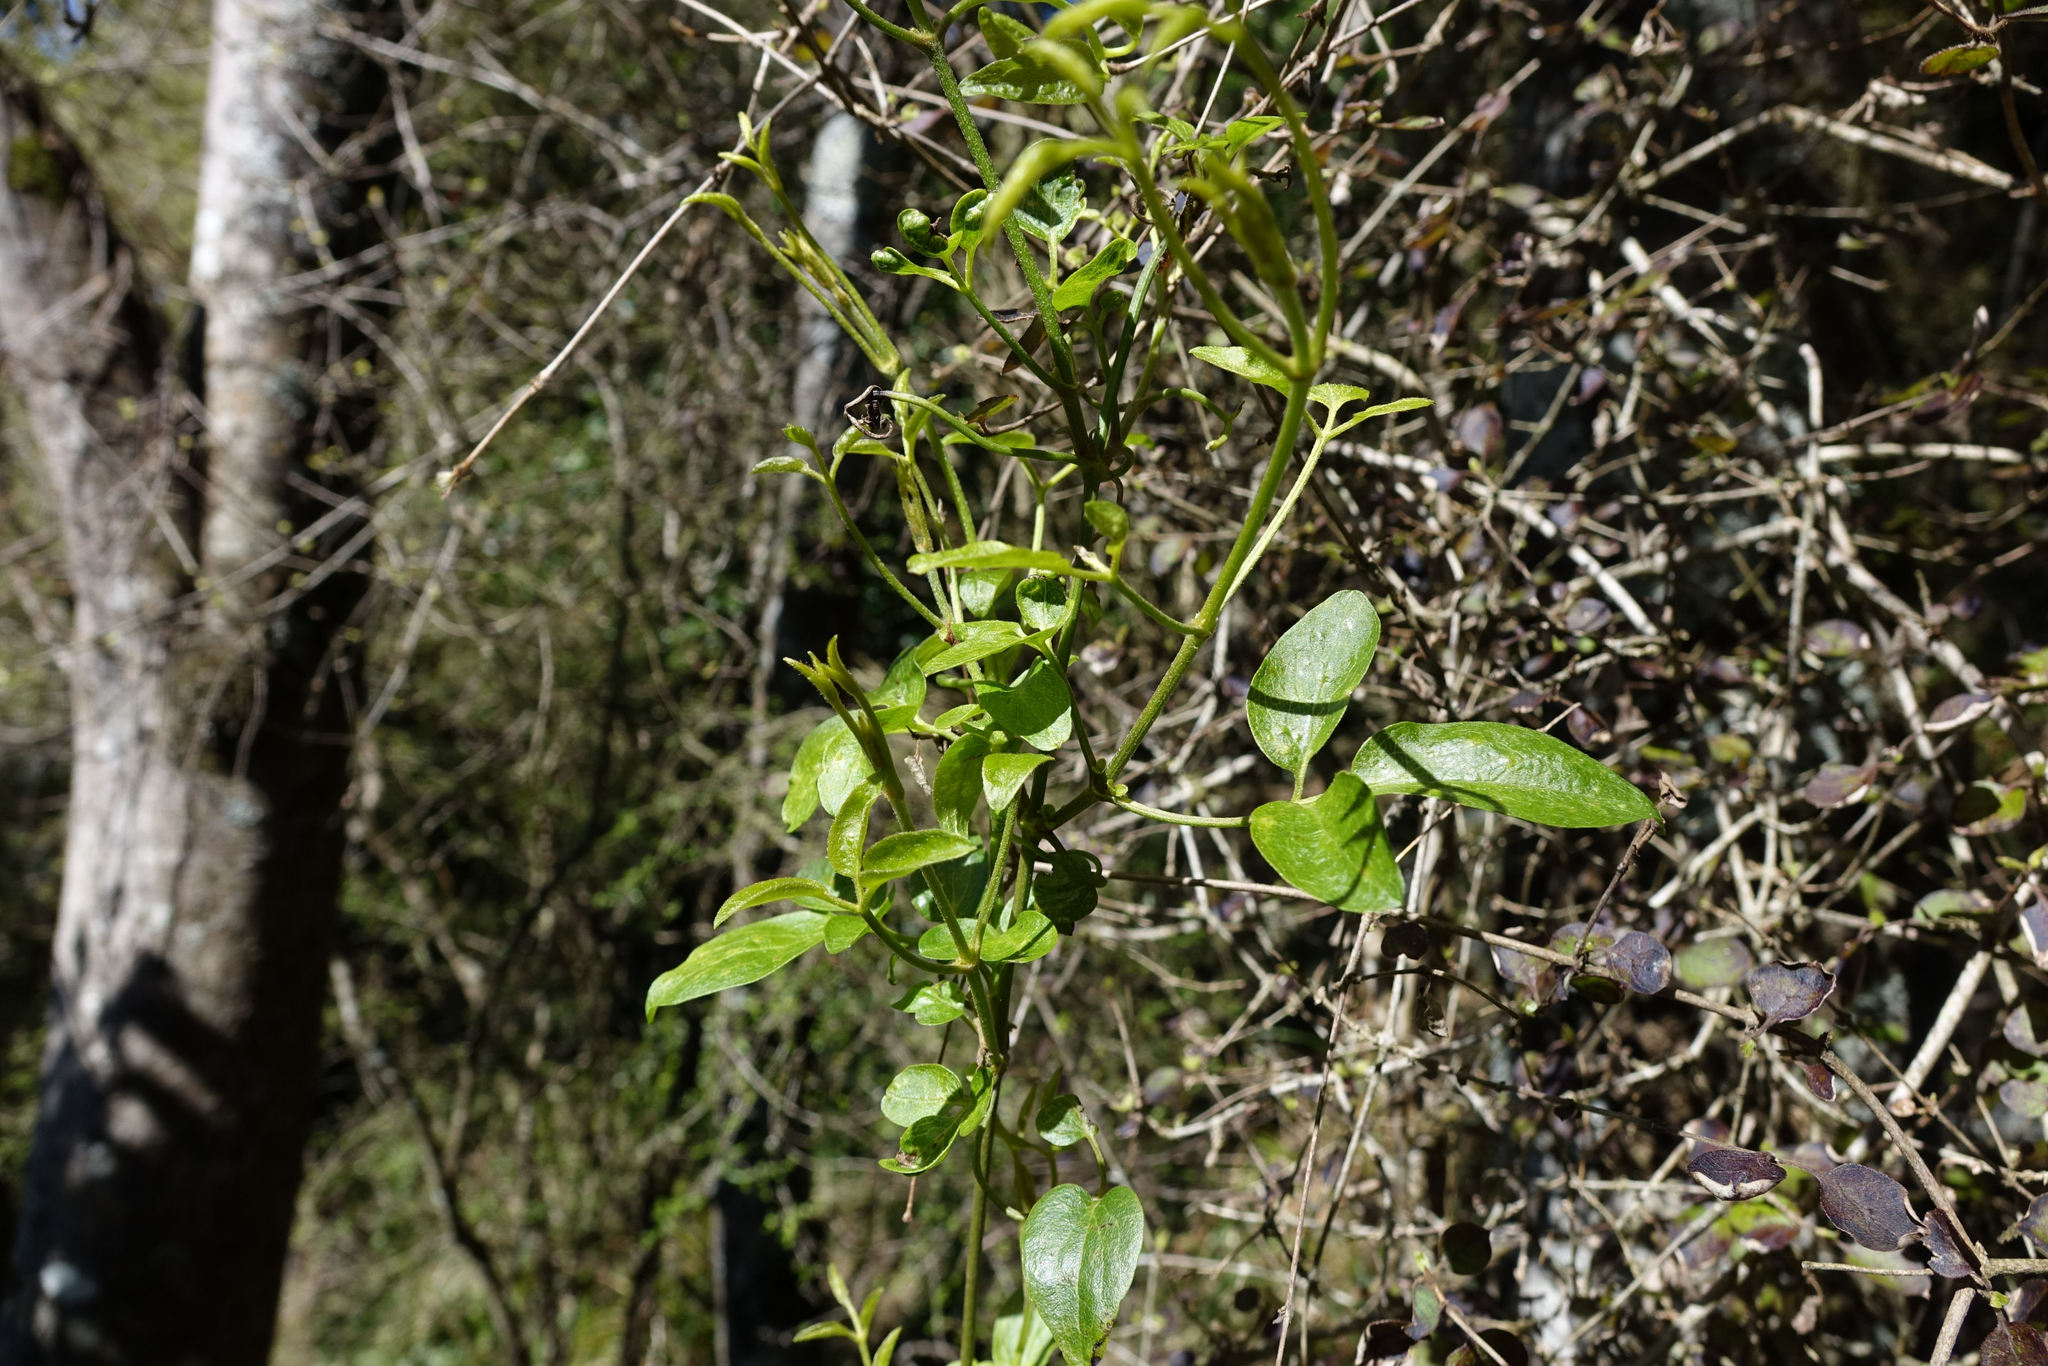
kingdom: Plantae
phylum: Tracheophyta
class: Magnoliopsida
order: Ranunculales
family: Ranunculaceae
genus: Clematis
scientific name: Clematis foetida
